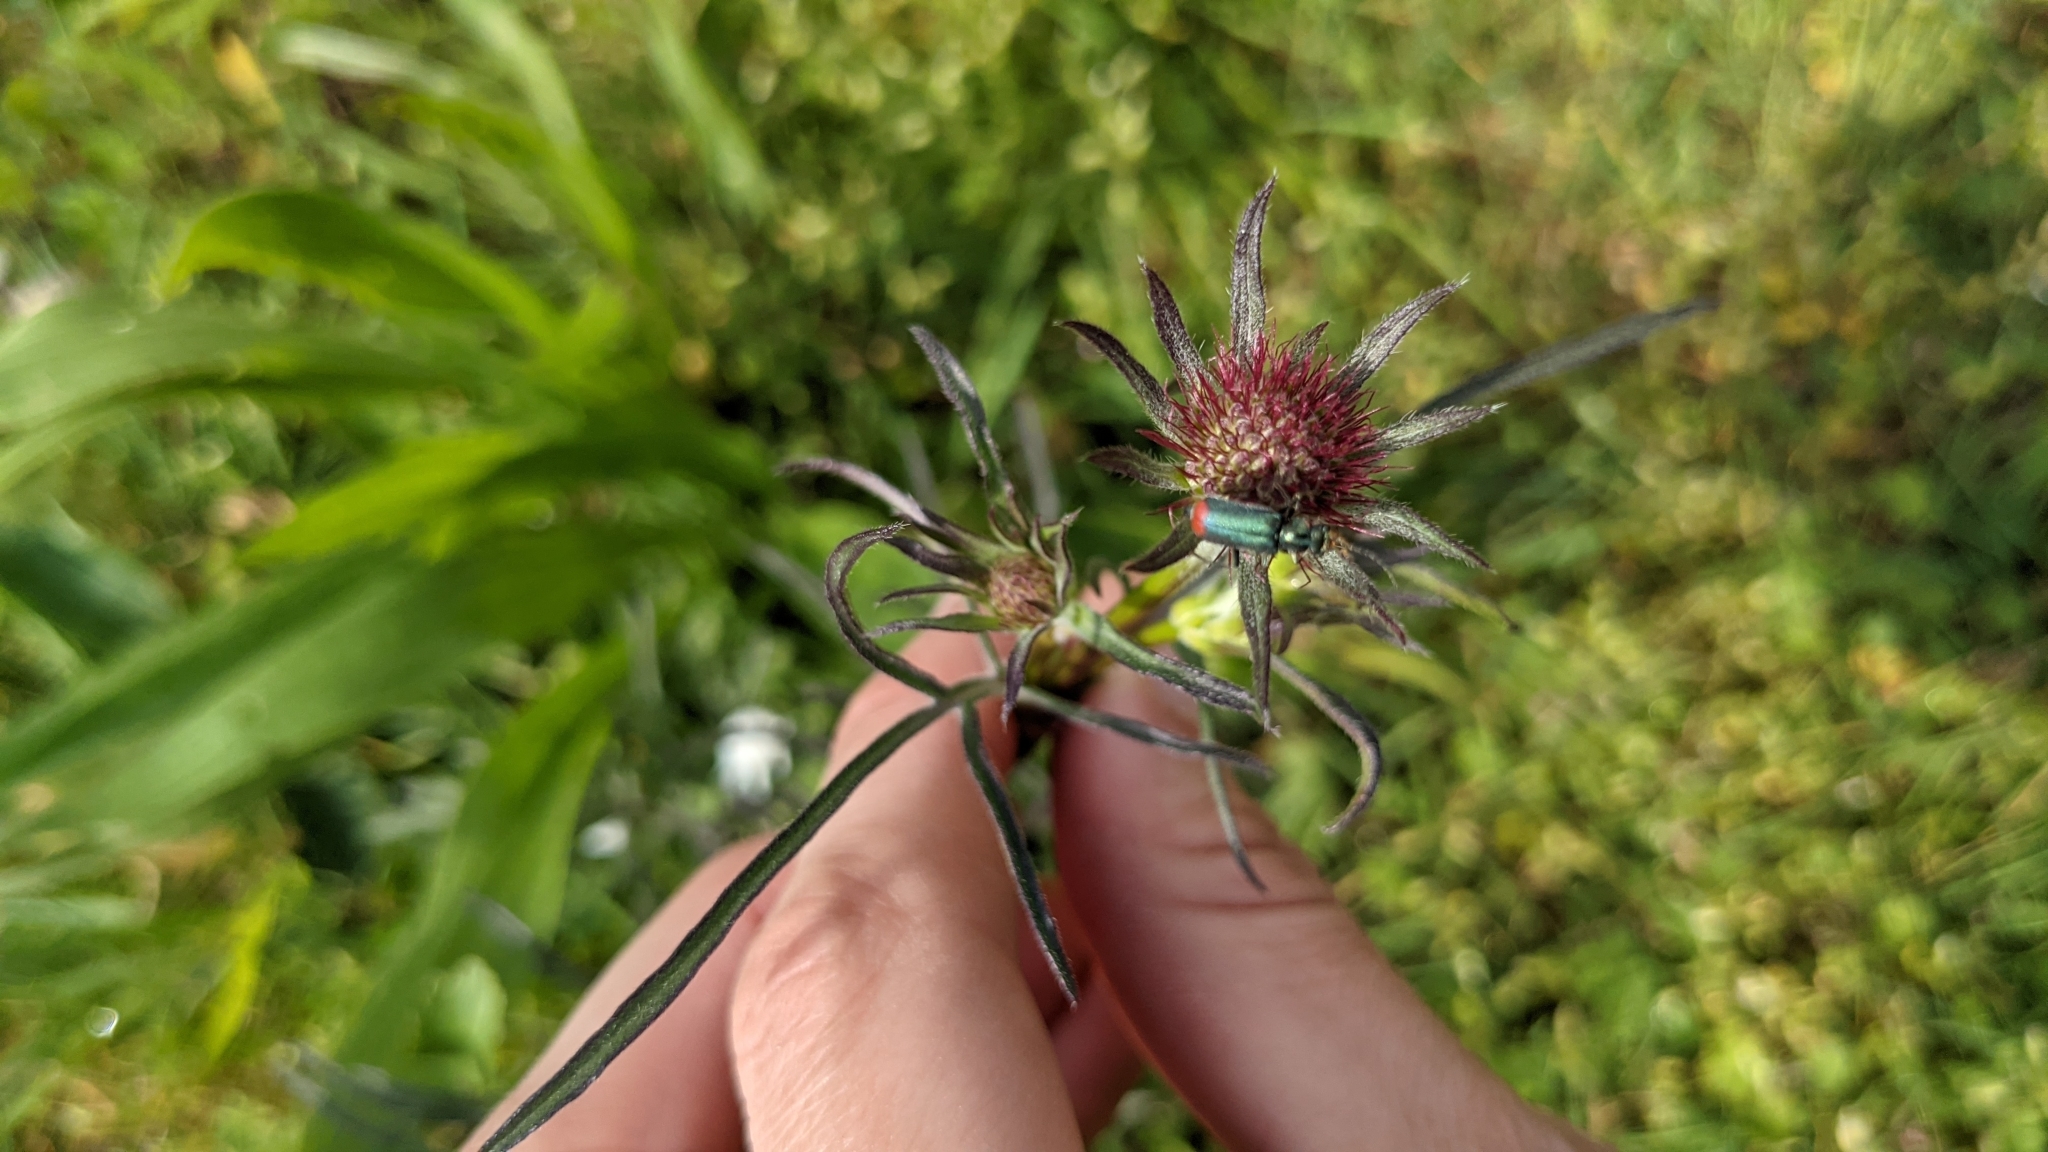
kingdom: Animalia
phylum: Arthropoda
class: Insecta
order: Coleoptera
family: Melyridae
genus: Malachius
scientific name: Malachius bipustulatus
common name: Malachite beetle
